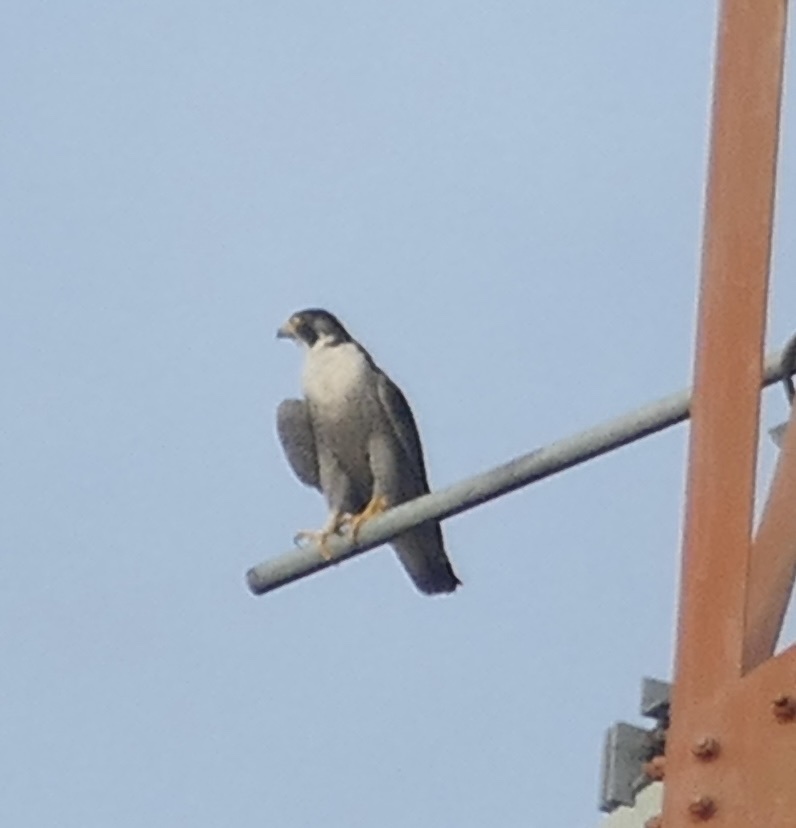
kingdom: Animalia
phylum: Chordata
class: Aves
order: Falconiformes
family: Falconidae
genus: Falco
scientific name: Falco peregrinus
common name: Peregrine falcon
